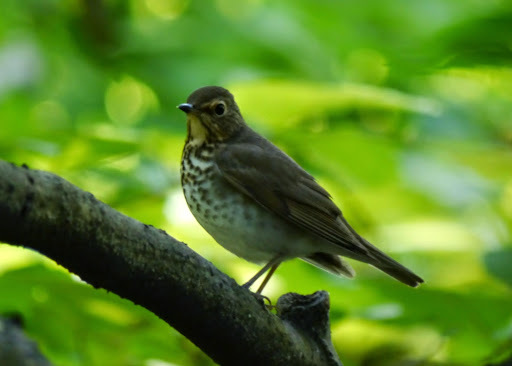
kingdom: Animalia
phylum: Chordata
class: Aves
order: Passeriformes
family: Turdidae
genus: Catharus
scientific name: Catharus ustulatus
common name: Swainson's thrush
